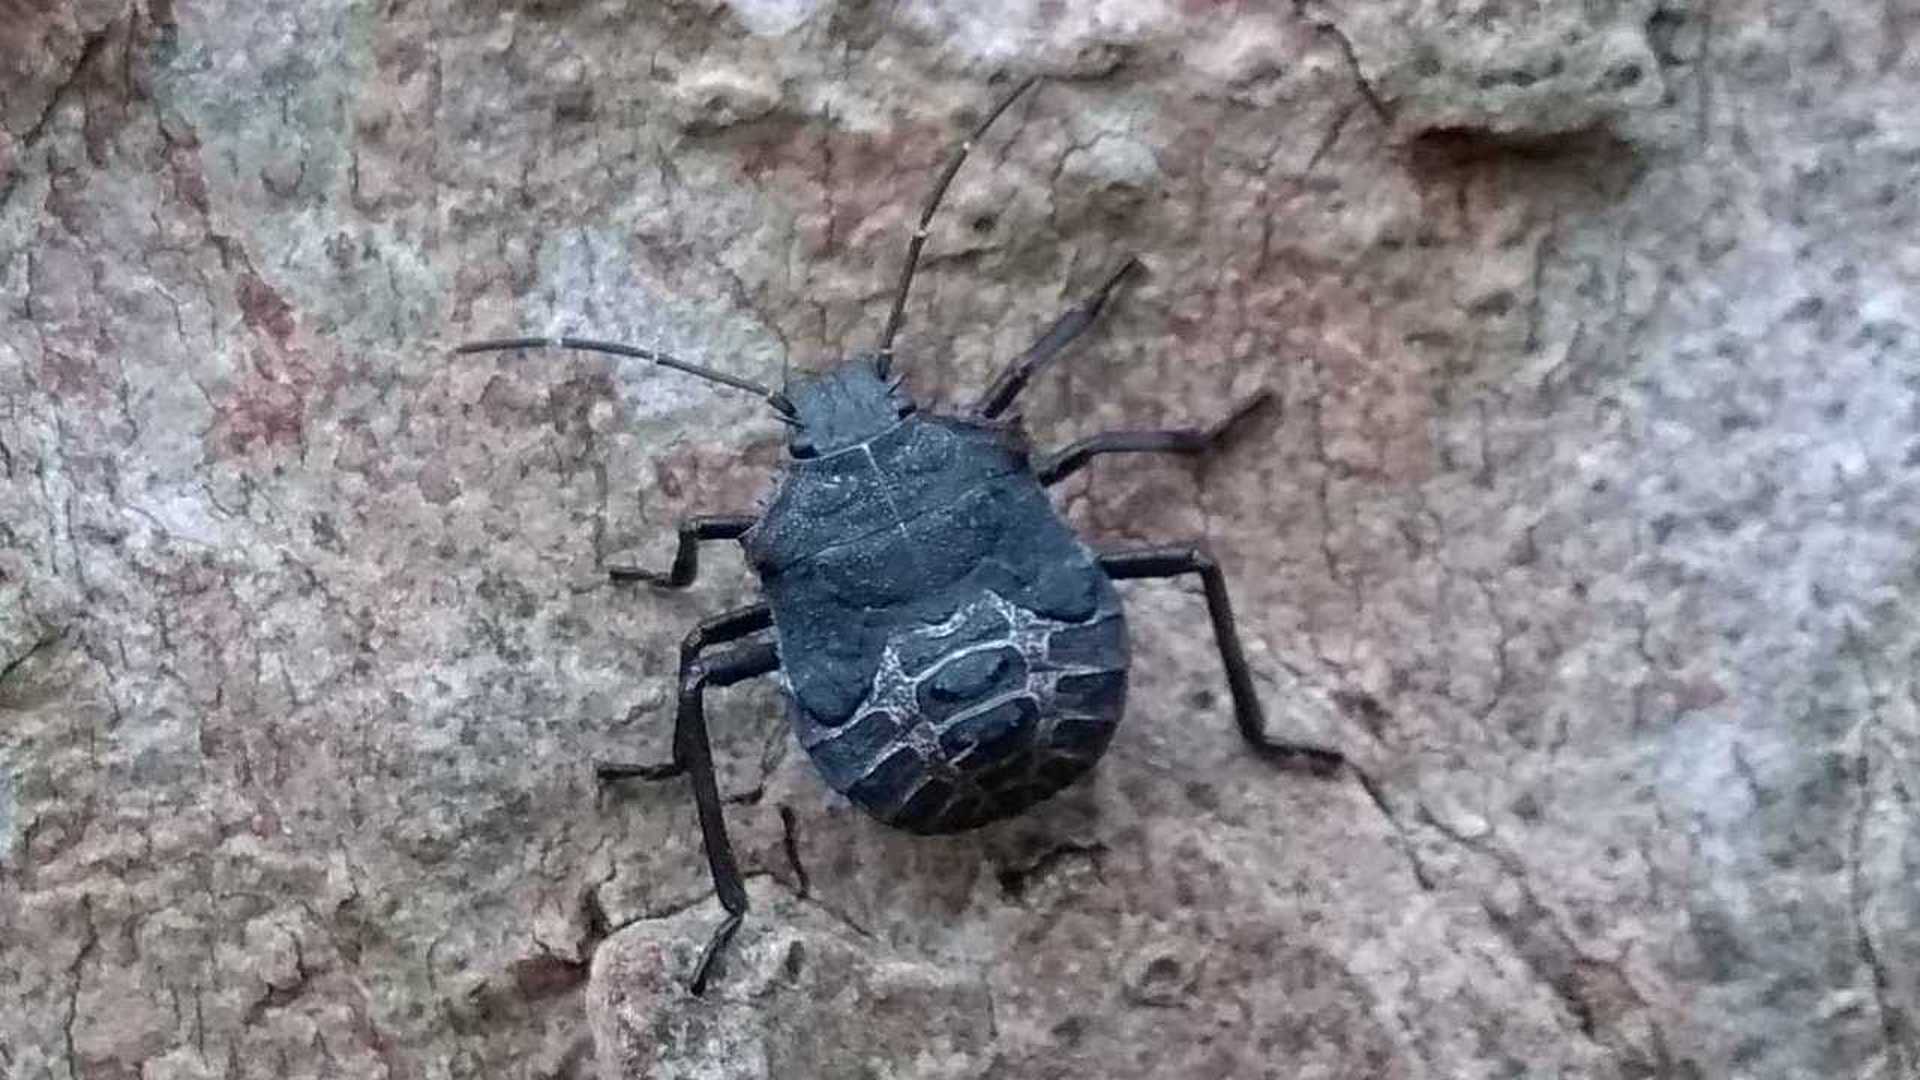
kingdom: Animalia
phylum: Arthropoda
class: Insecta
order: Hemiptera
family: Pentatomidae
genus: Halyomorpha
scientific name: Halyomorpha halys
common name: Brown marmorated stink bug
